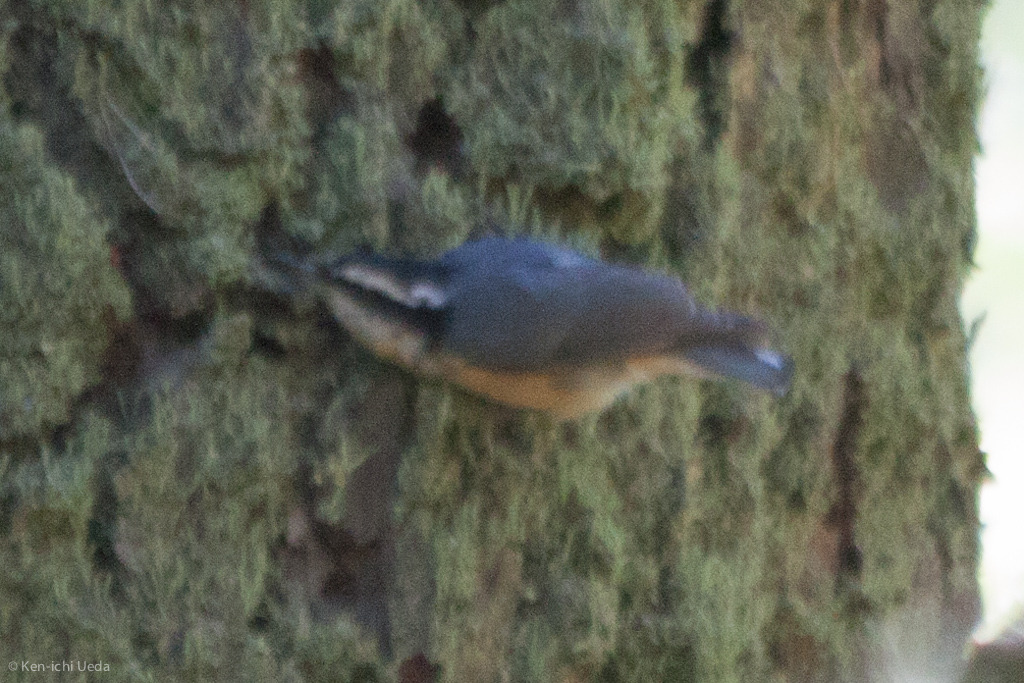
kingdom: Animalia
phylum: Chordata
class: Aves
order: Passeriformes
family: Sittidae
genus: Sitta
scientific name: Sitta canadensis
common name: Red-breasted nuthatch
